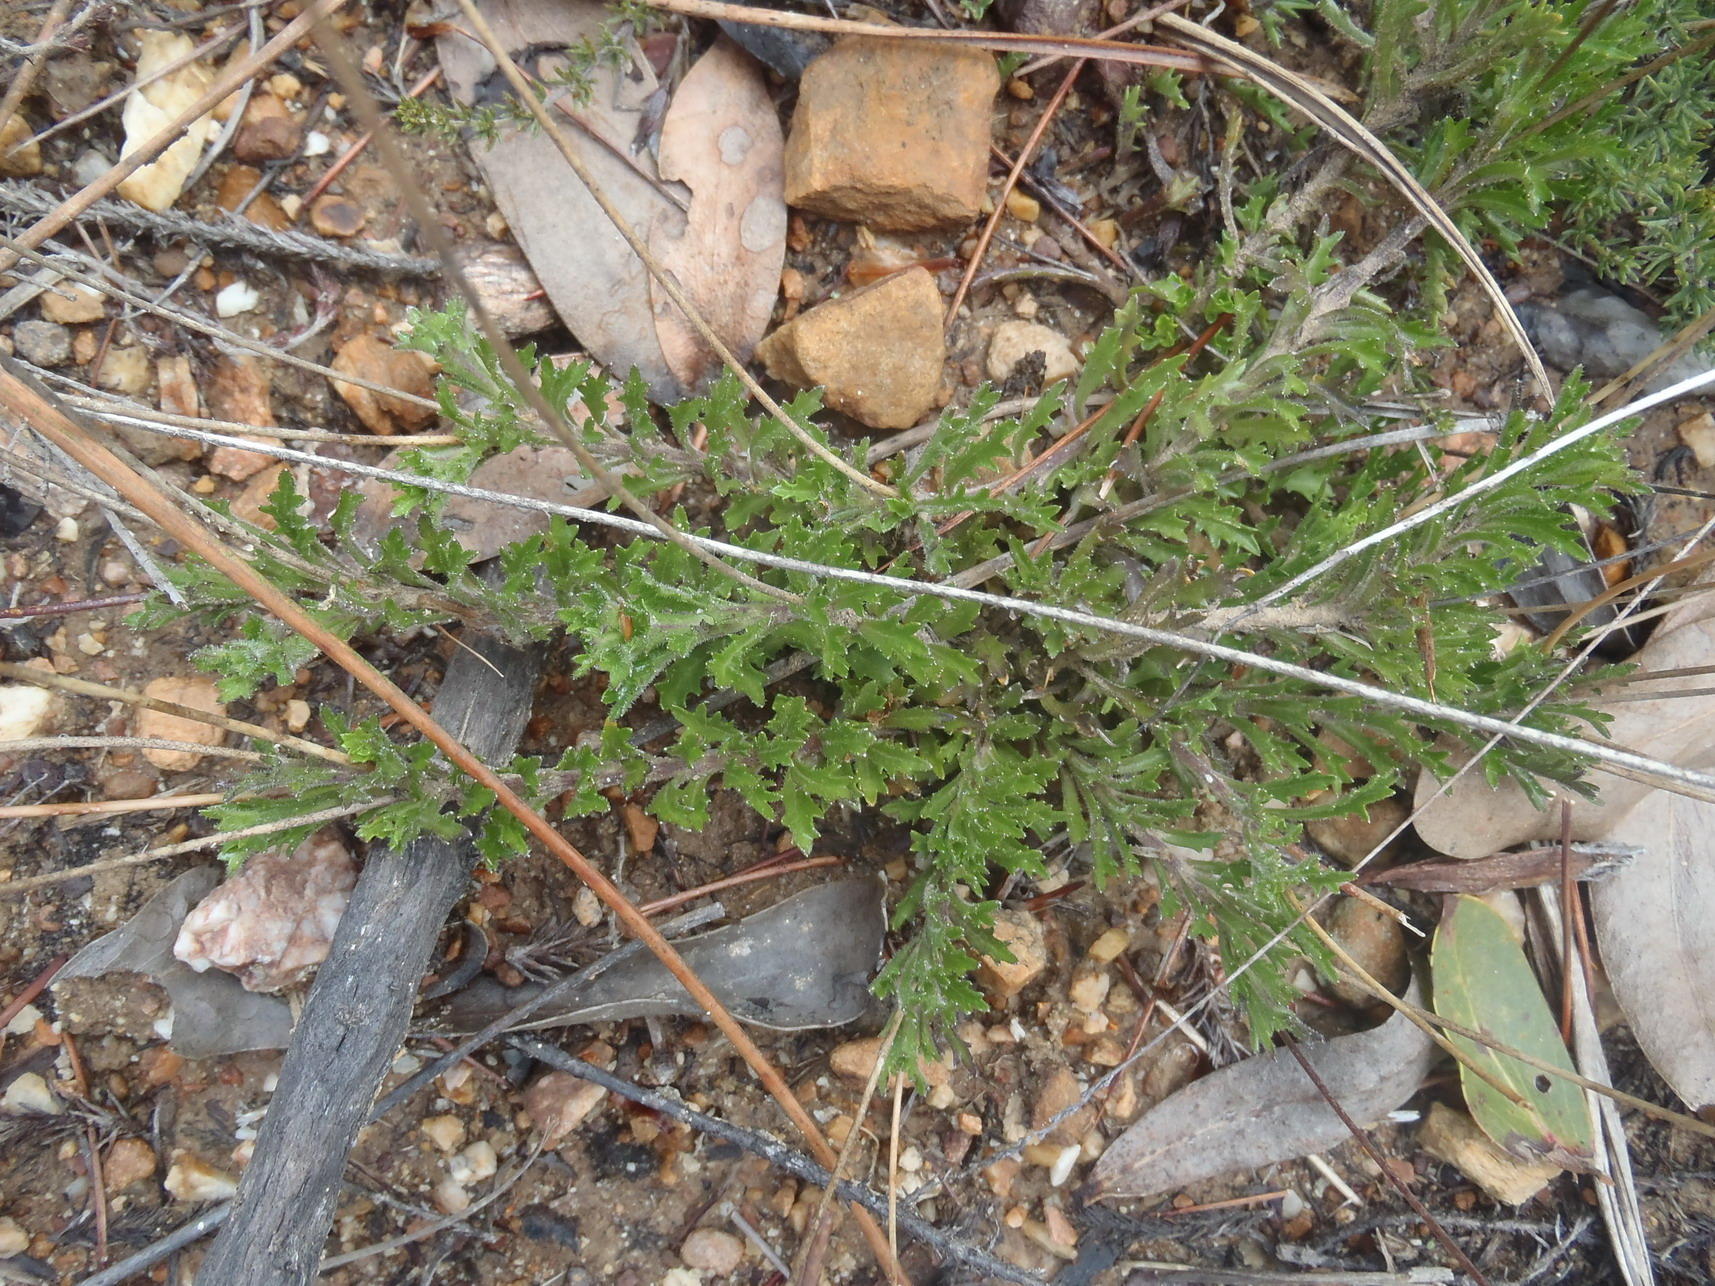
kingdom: Plantae
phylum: Tracheophyta
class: Magnoliopsida
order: Asterales
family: Campanulaceae
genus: Lobelia
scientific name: Lobelia tomentosa
